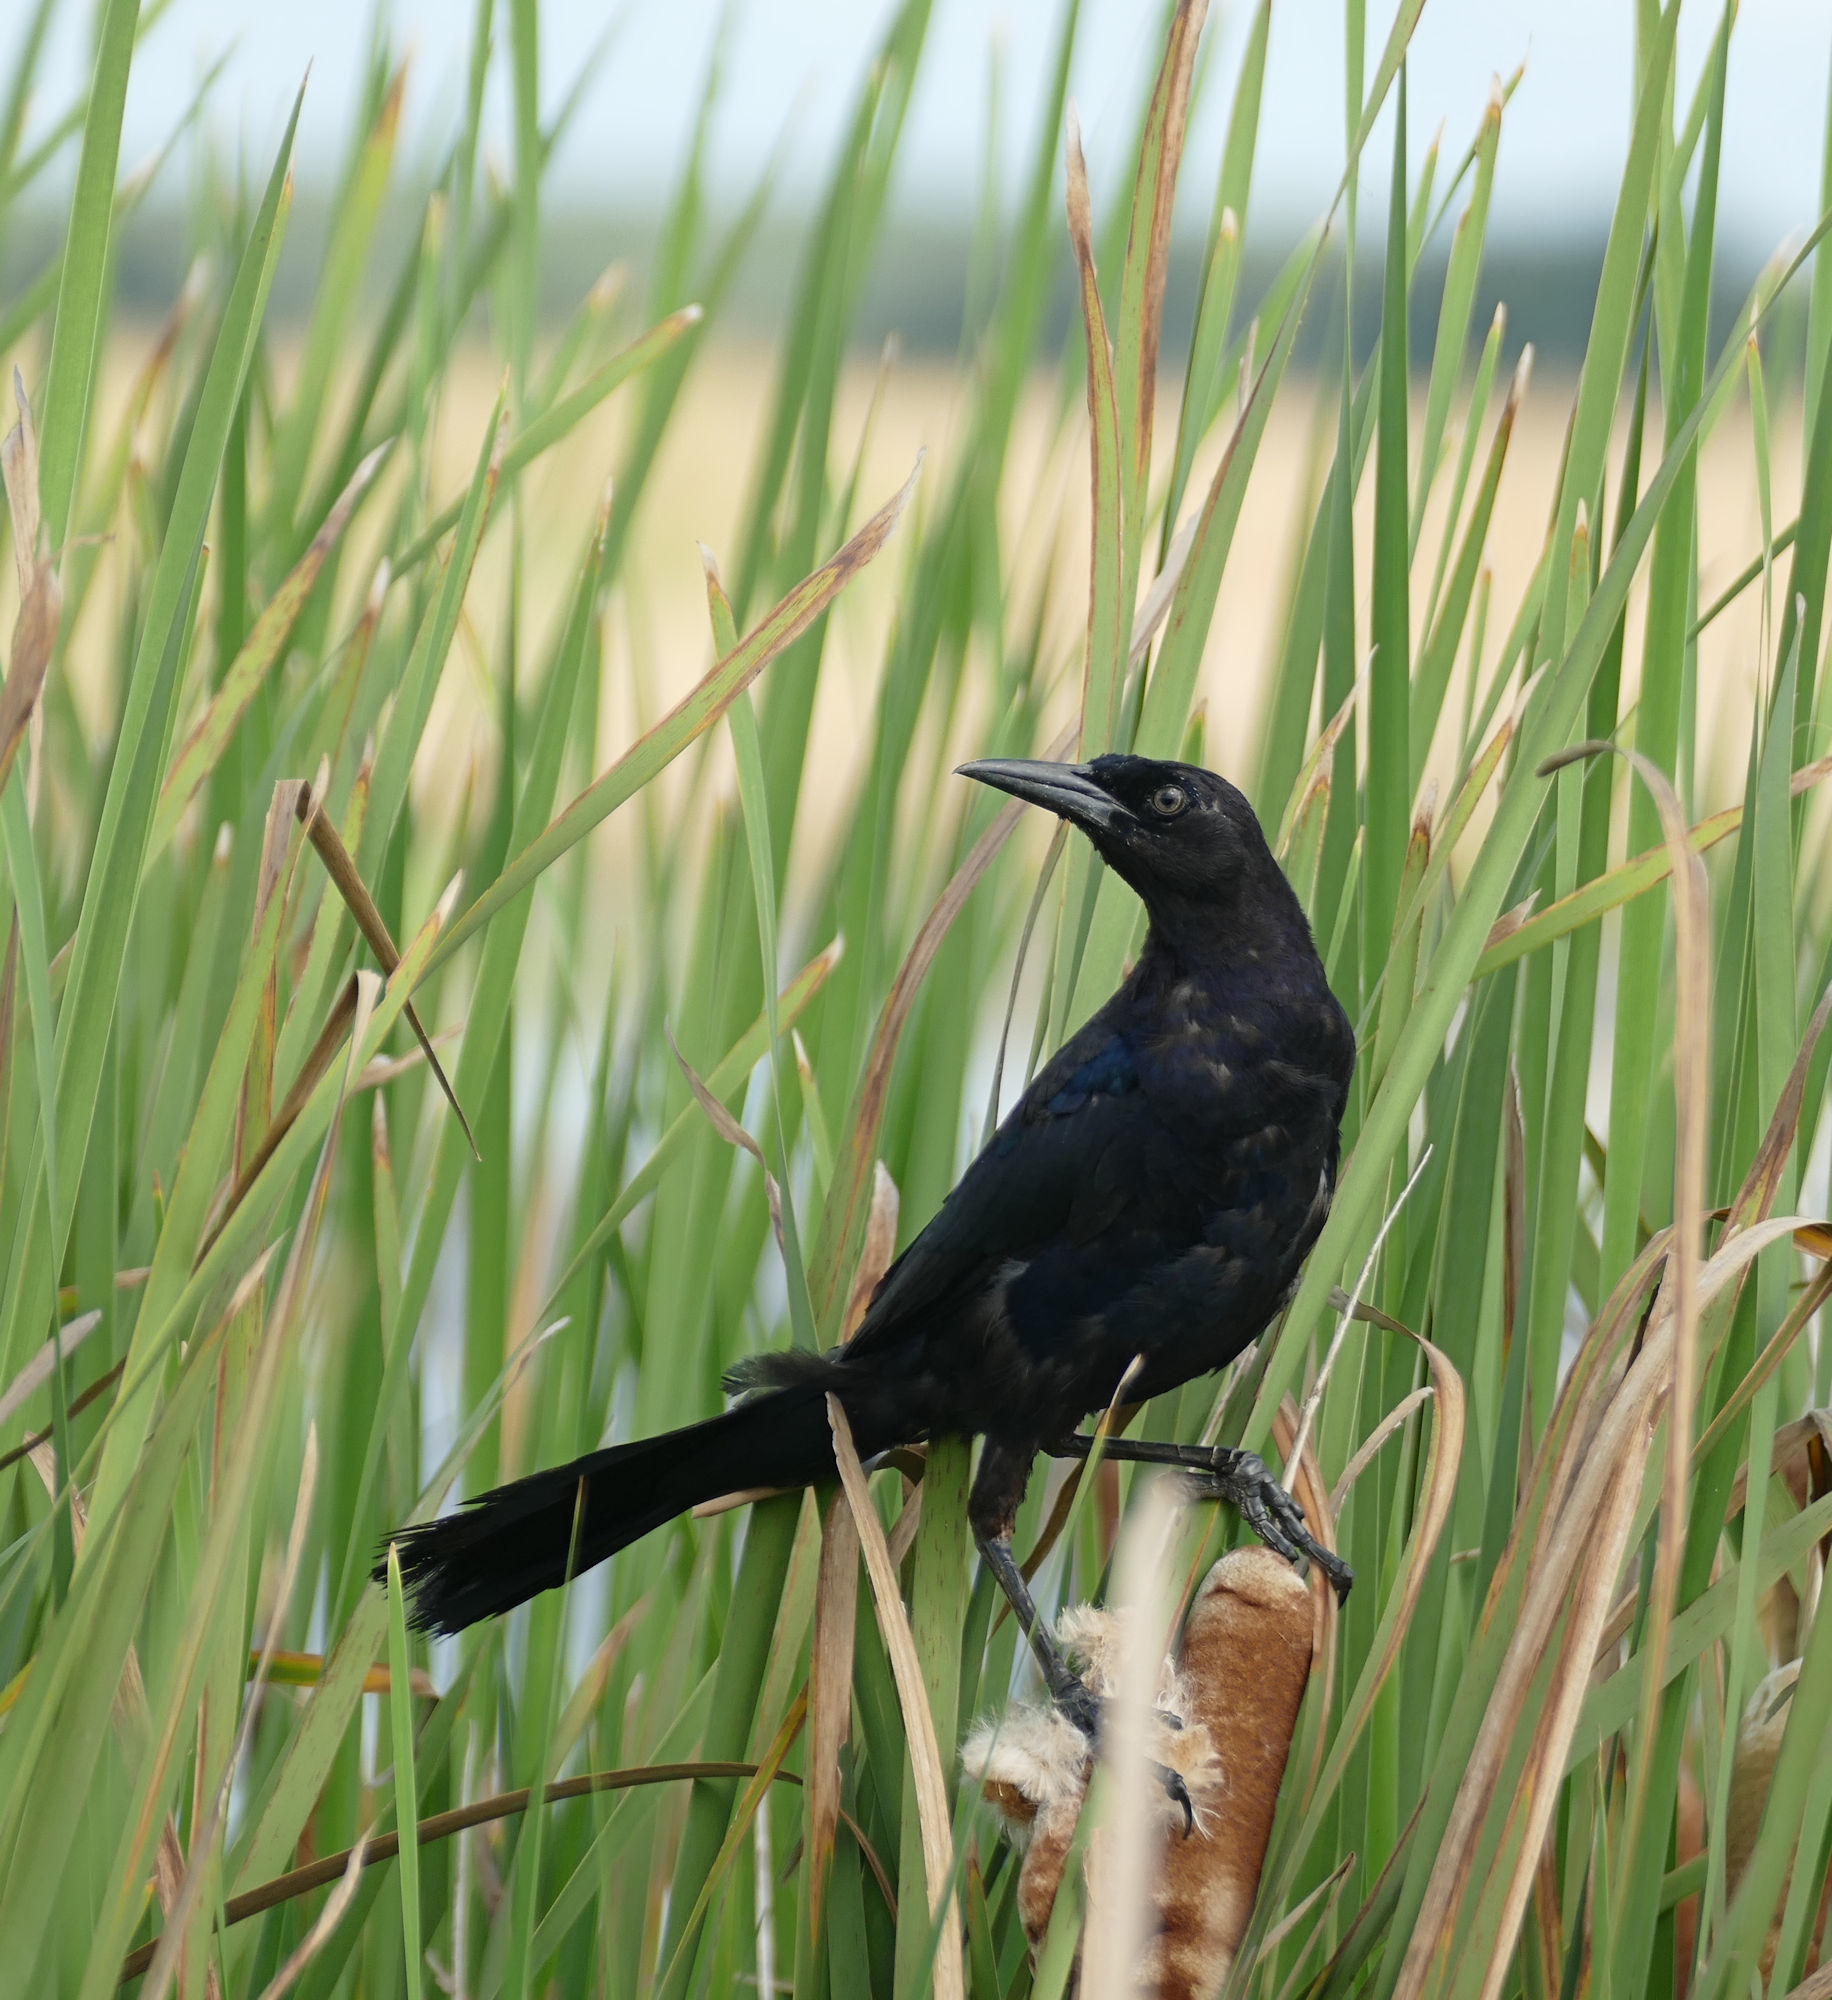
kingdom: Animalia
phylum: Chordata
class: Aves
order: Passeriformes
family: Icteridae
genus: Quiscalus
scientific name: Quiscalus major
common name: Boat-tailed grackle
